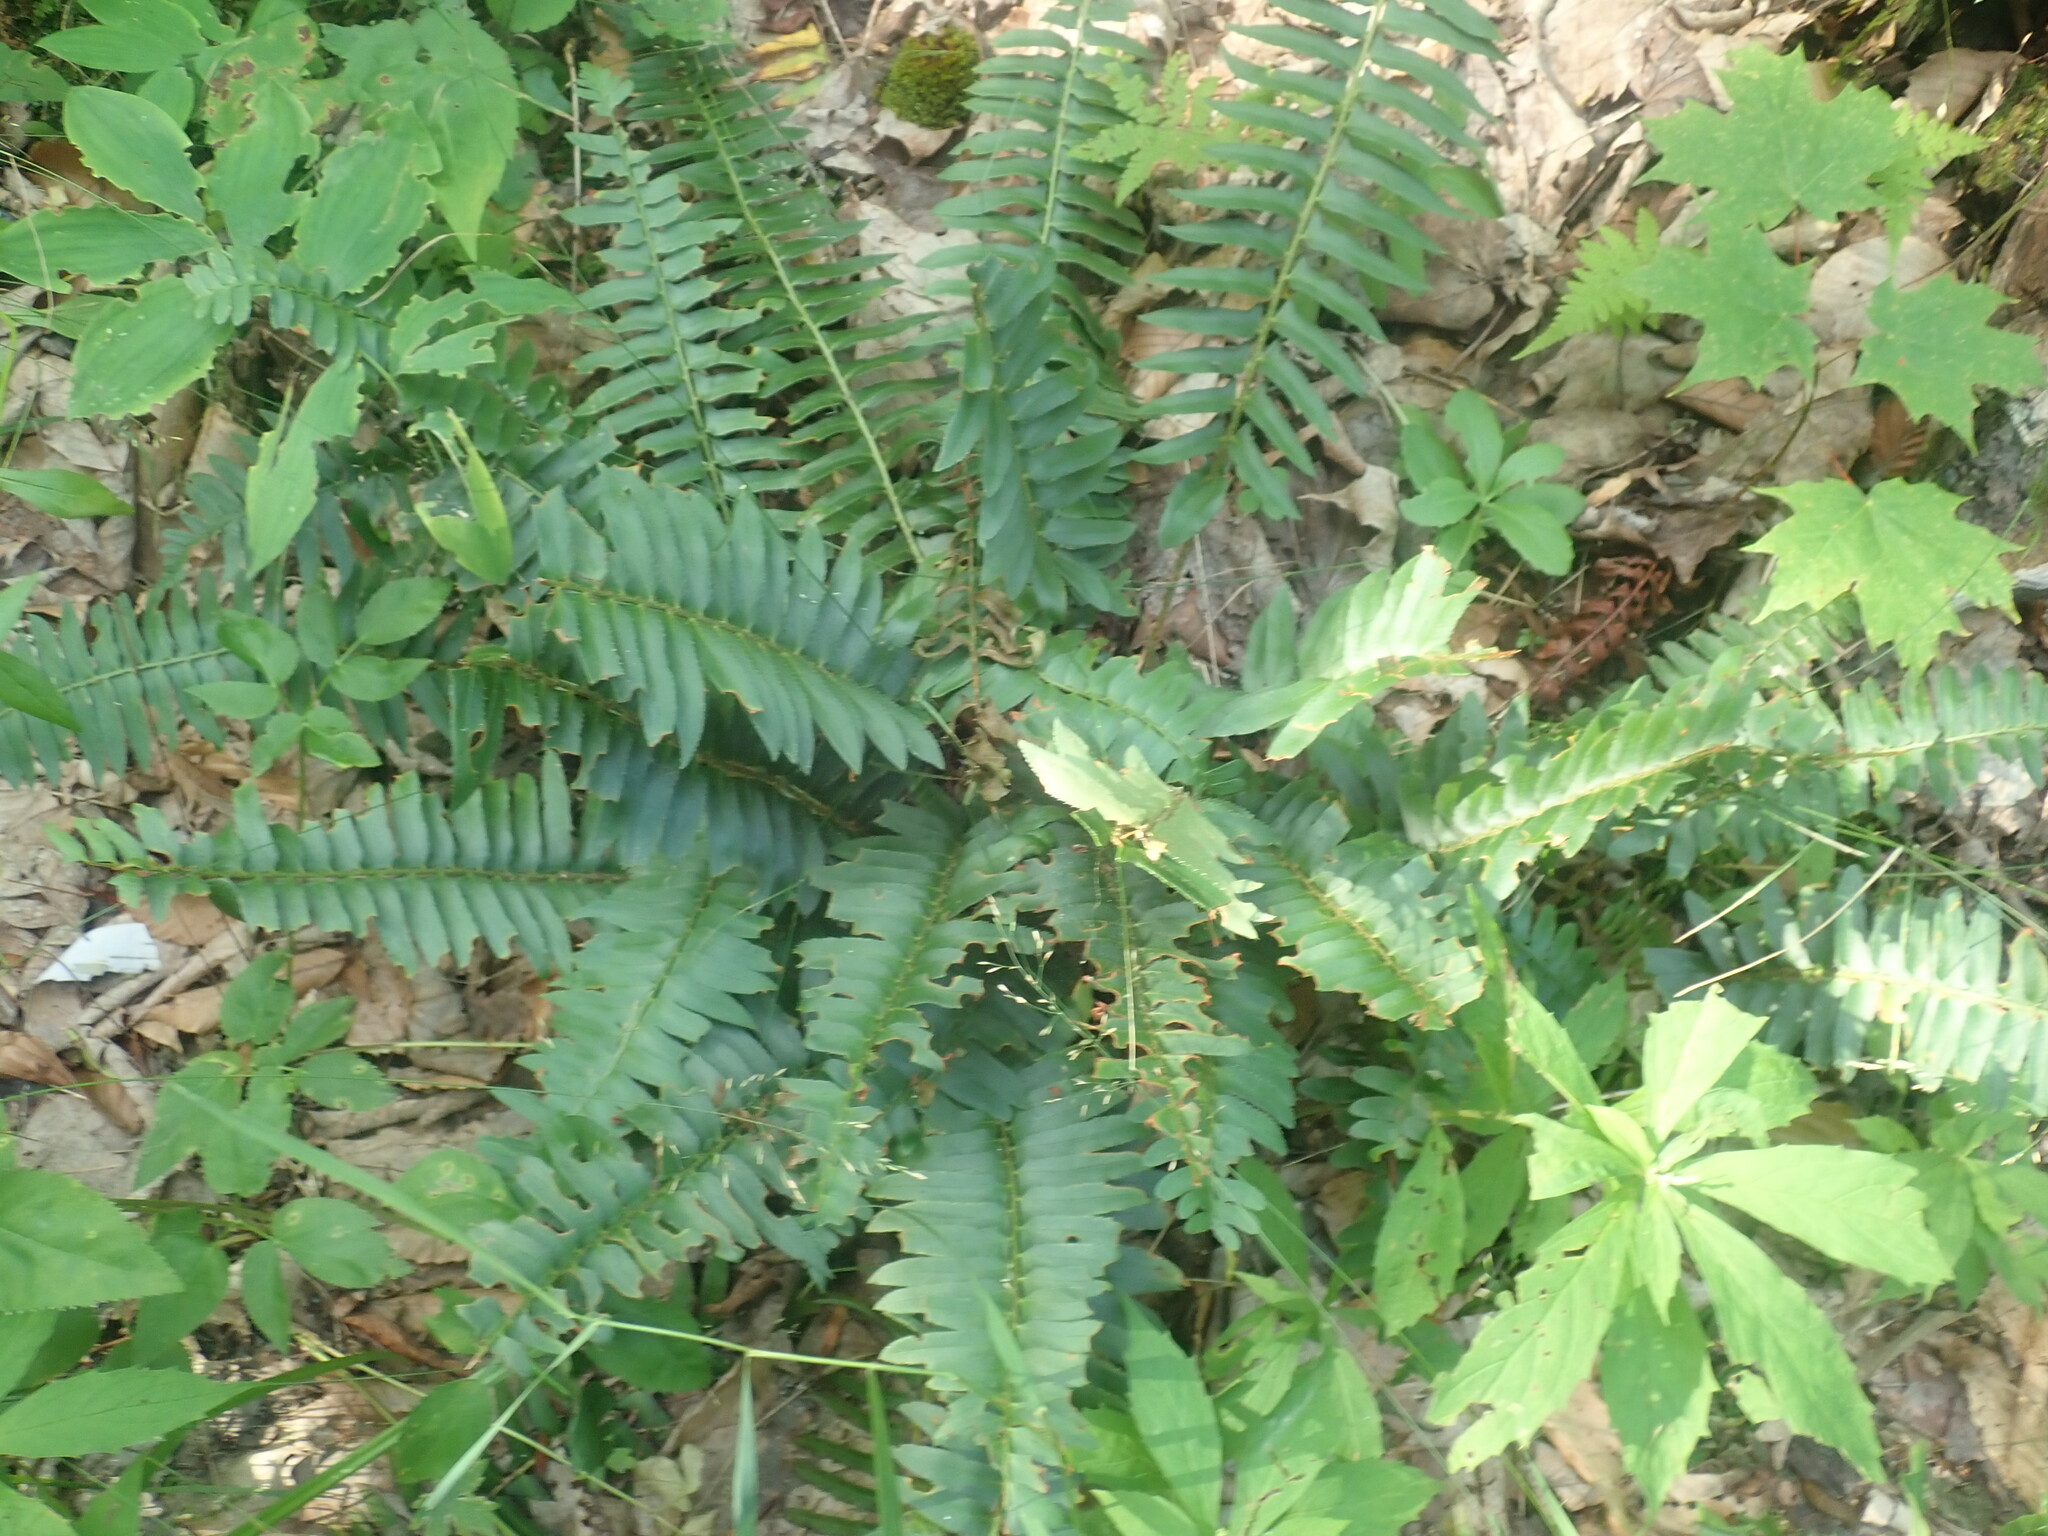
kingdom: Plantae
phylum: Tracheophyta
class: Polypodiopsida
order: Polypodiales
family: Dryopteridaceae
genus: Polystichum
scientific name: Polystichum acrostichoides
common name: Christmas fern
